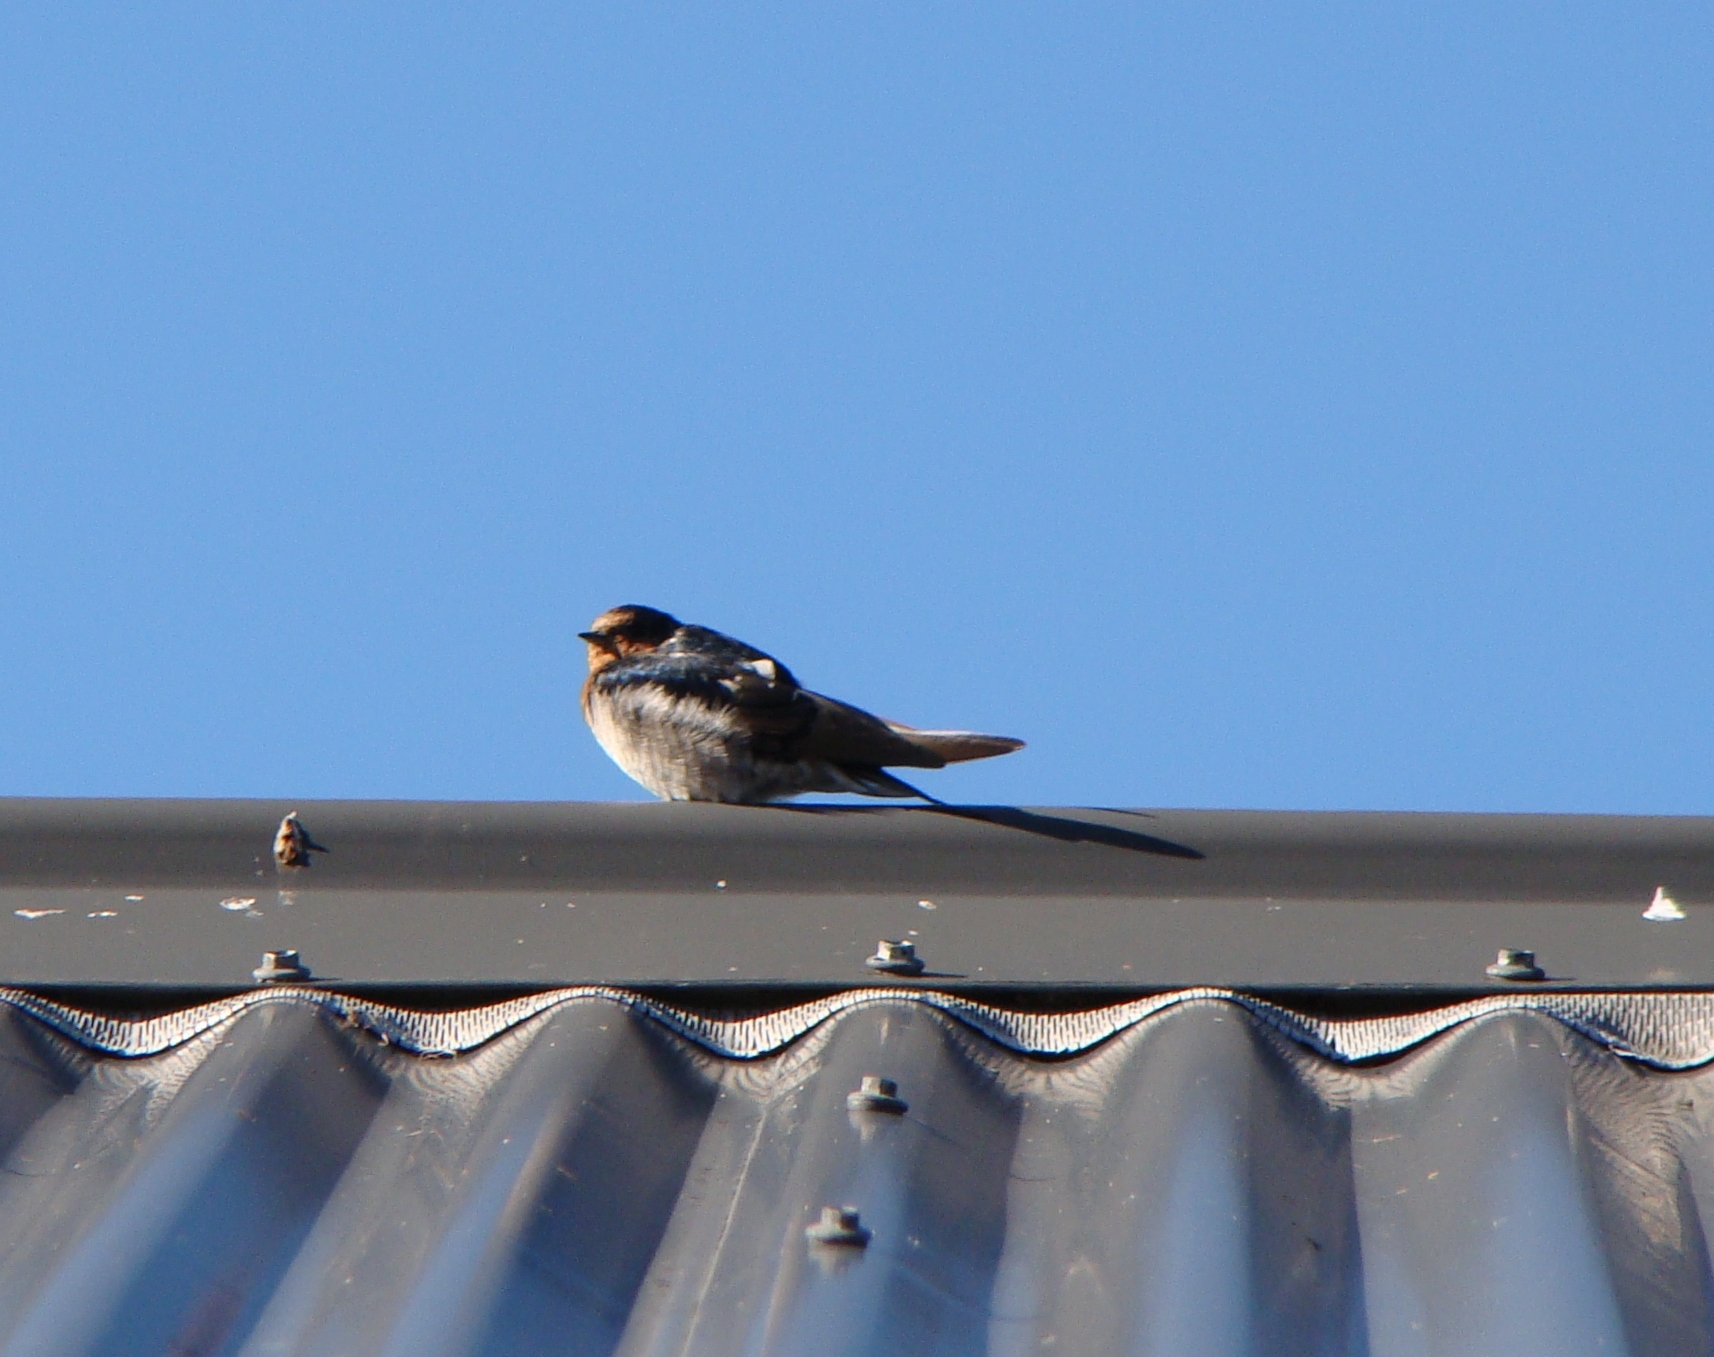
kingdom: Animalia
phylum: Chordata
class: Aves
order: Passeriformes
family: Hirundinidae
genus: Hirundo
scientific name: Hirundo neoxena
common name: Welcome swallow
